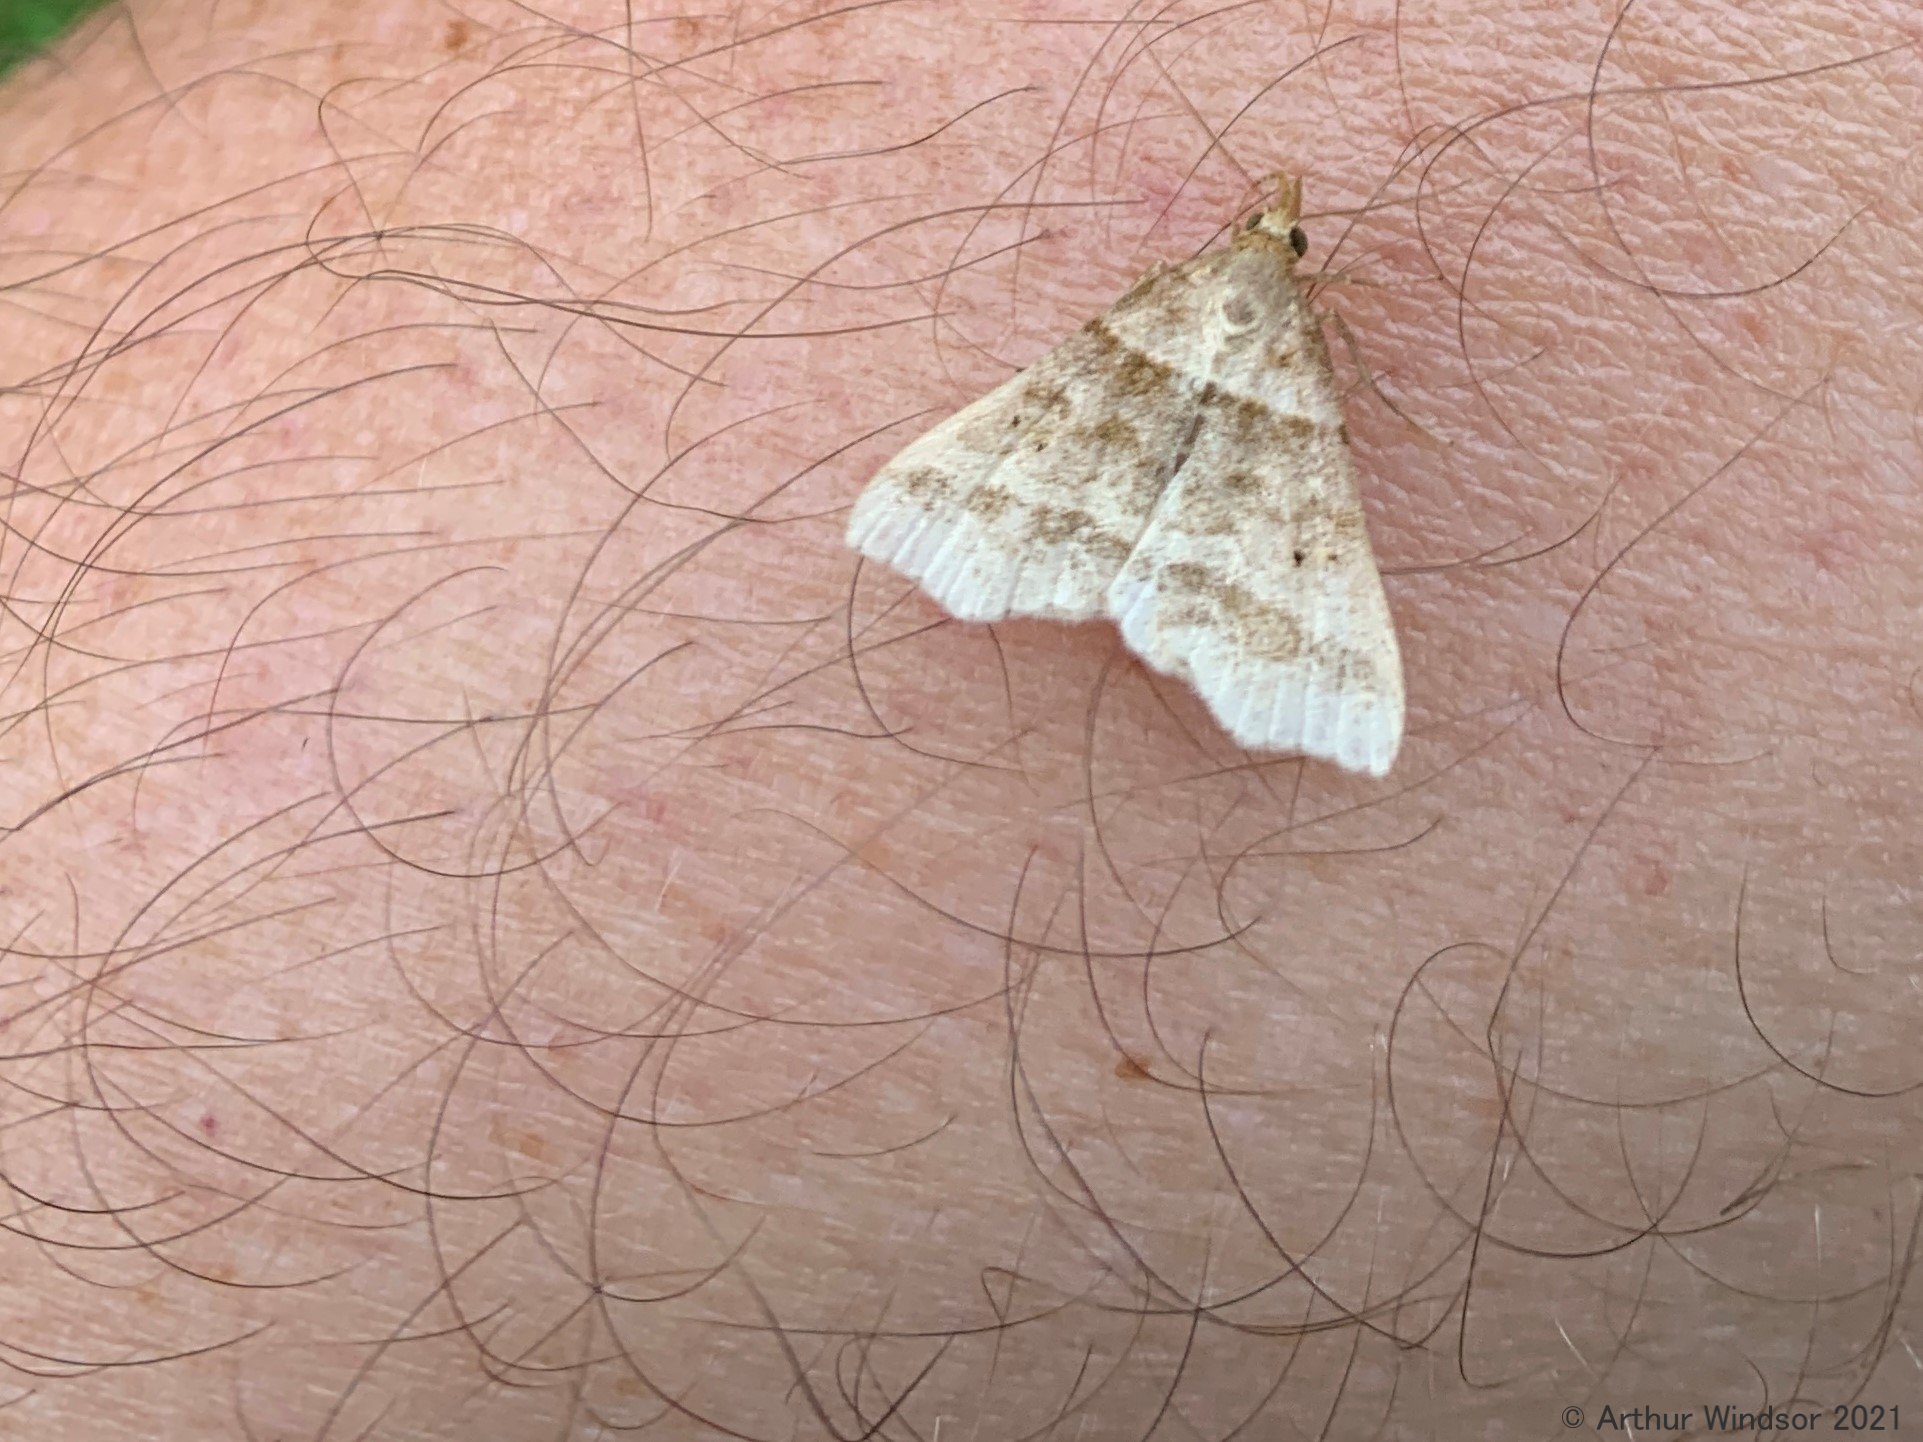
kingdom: Animalia
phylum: Arthropoda
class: Insecta
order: Lepidoptera
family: Erebidae
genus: Phaeolita
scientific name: Phaeolita pyramusalis
